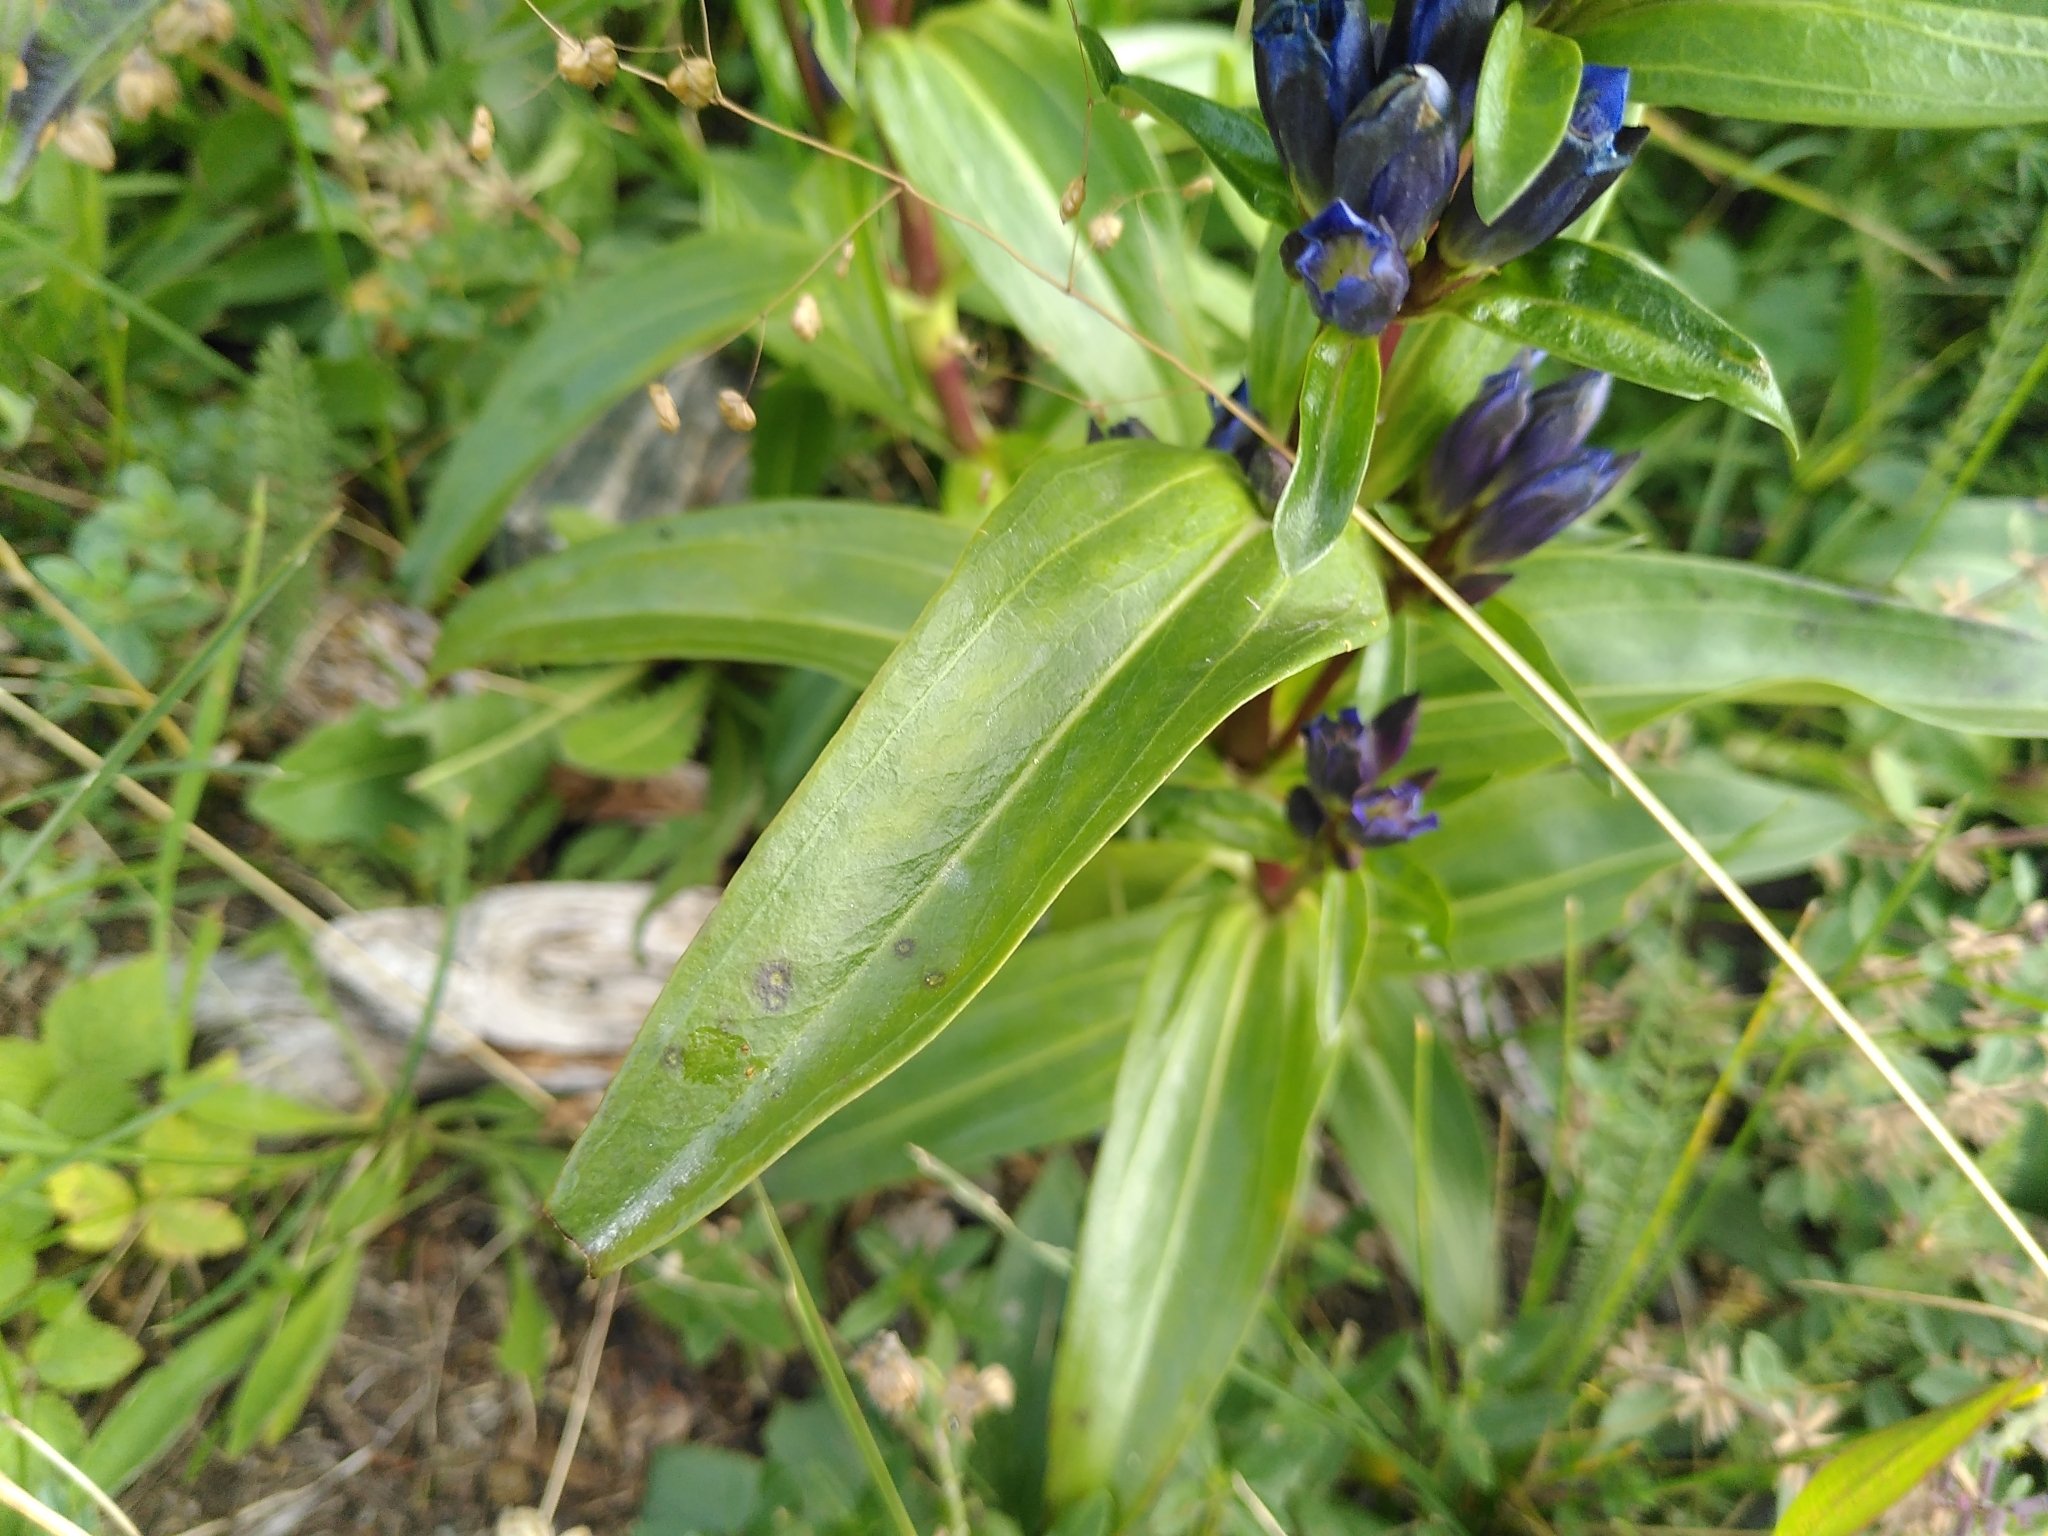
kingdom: Plantae
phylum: Tracheophyta
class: Magnoliopsida
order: Gentianales
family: Gentianaceae
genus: Gentiana
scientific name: Gentiana cruciata
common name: Cross gentian
